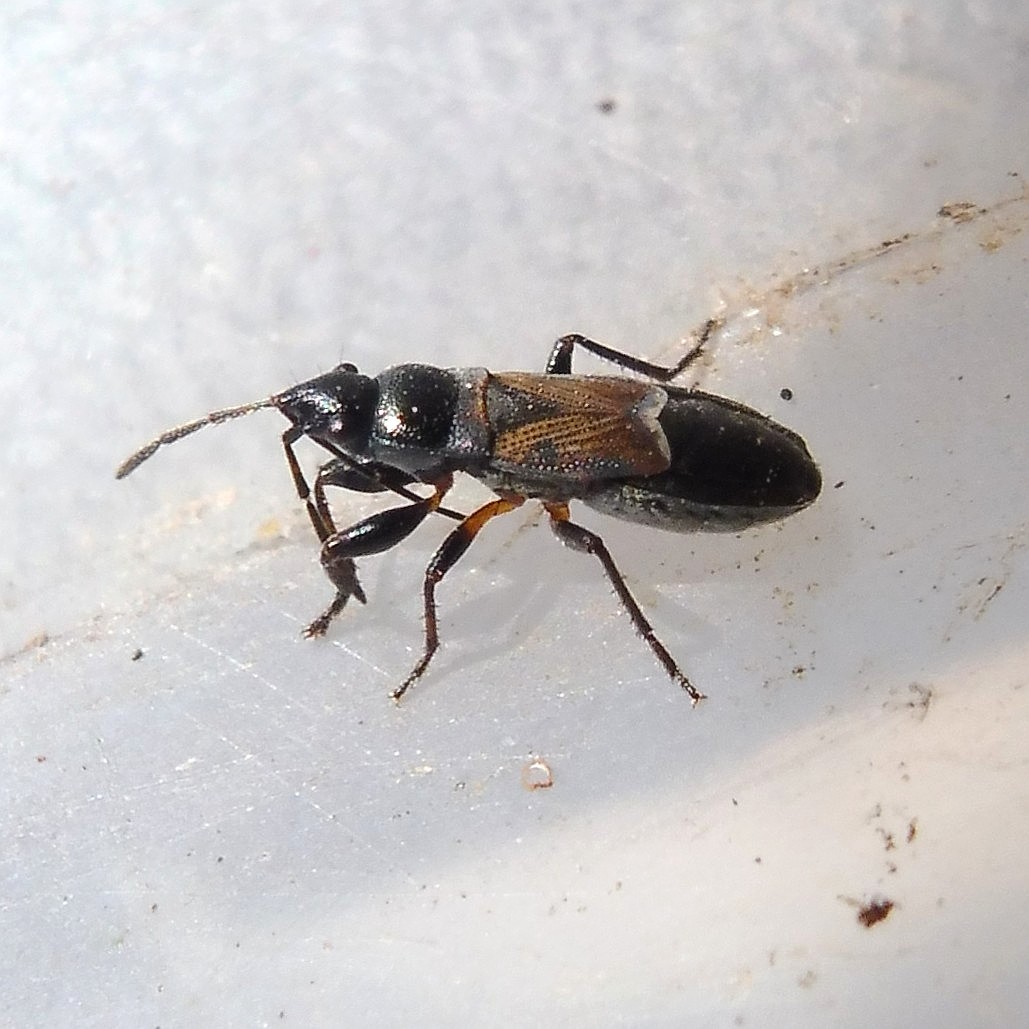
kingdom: Animalia
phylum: Arthropoda
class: Insecta
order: Hemiptera
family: Rhyparochromidae
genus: Macrodema
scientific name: Macrodema microptera
